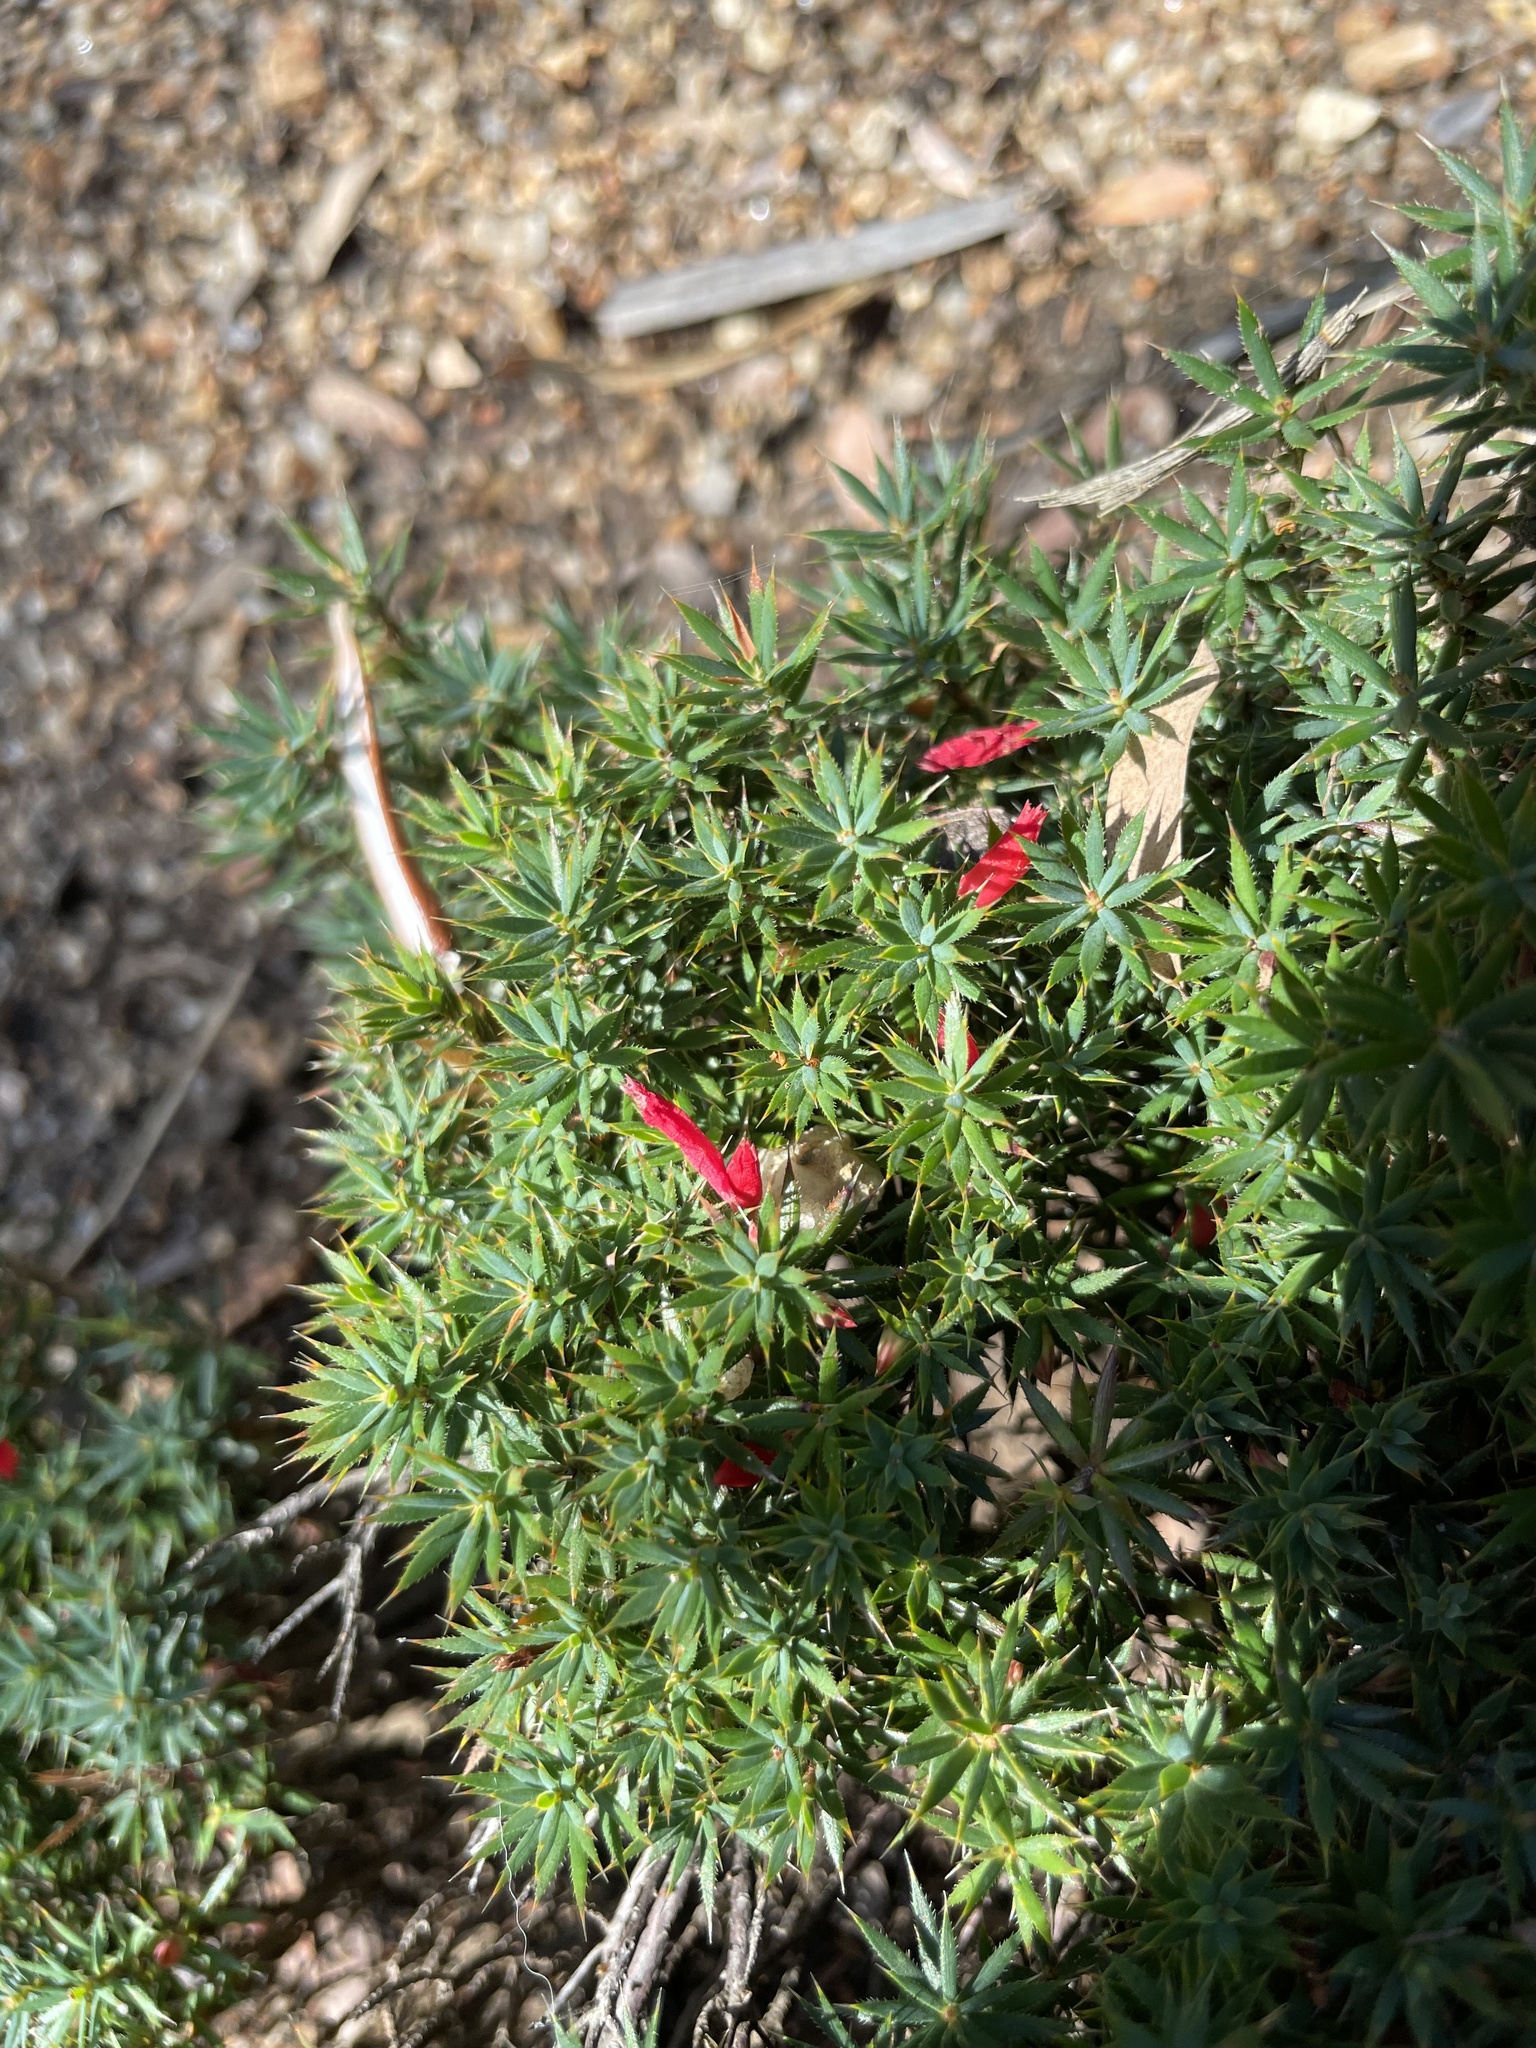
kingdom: Plantae
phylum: Tracheophyta
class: Magnoliopsida
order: Ericales
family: Ericaceae
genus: Styphelia
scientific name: Styphelia humifusa
